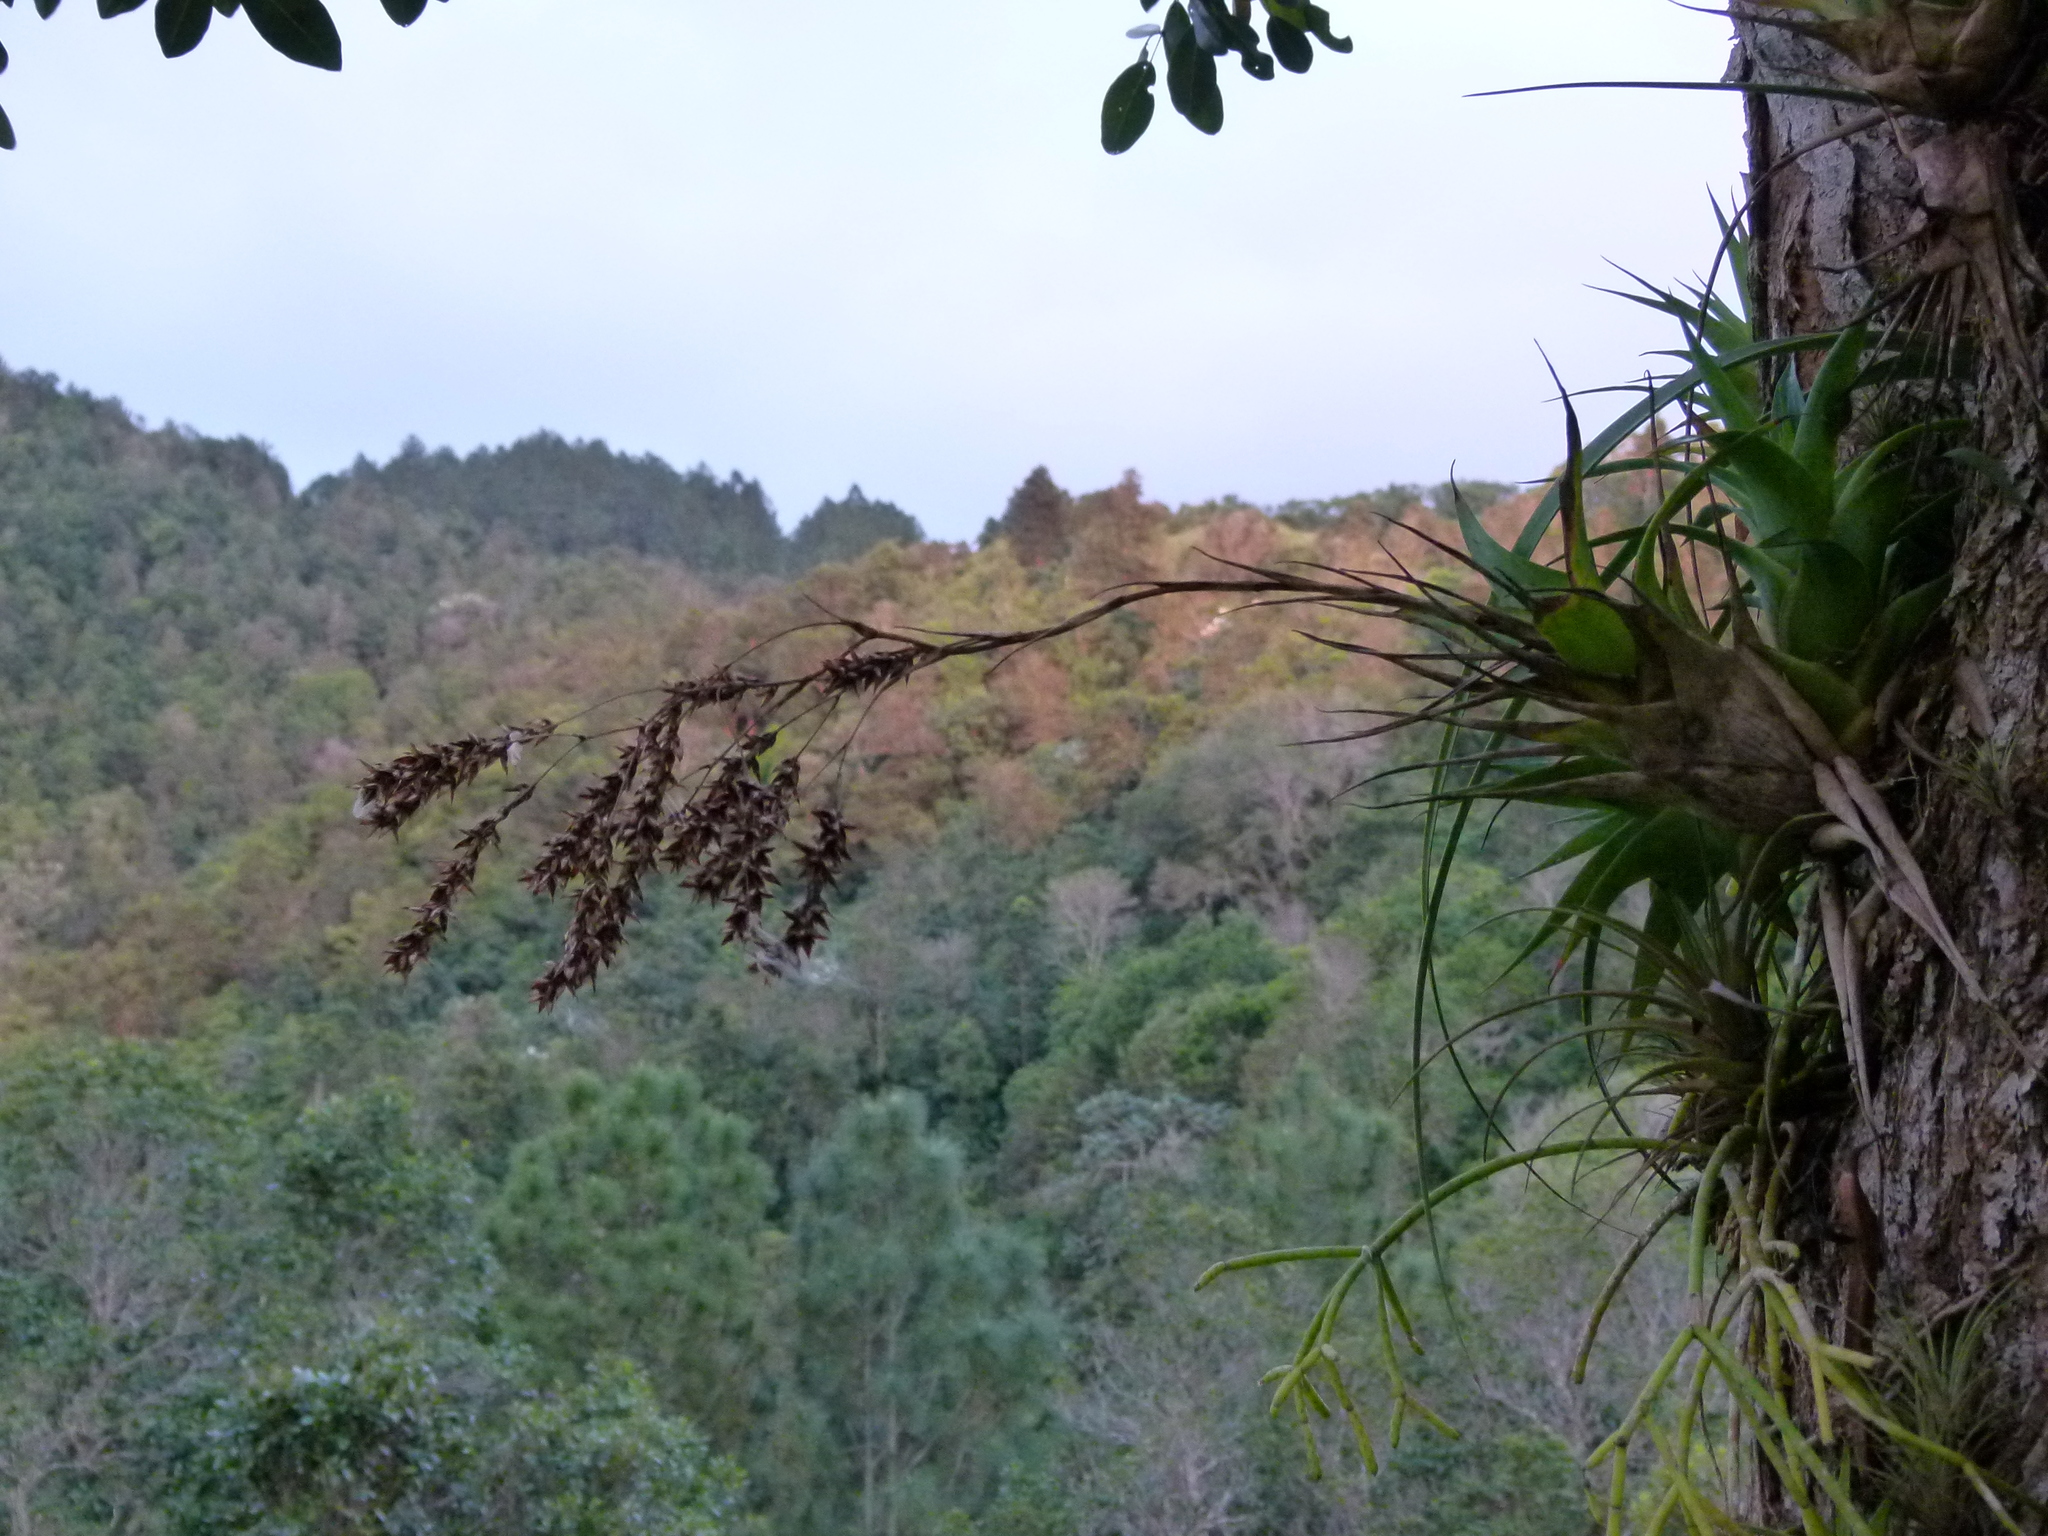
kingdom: Plantae
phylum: Tracheophyta
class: Liliopsida
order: Poales
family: Bromeliaceae
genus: Catopsis
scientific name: Catopsis floribunda
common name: Florida strap airplant
